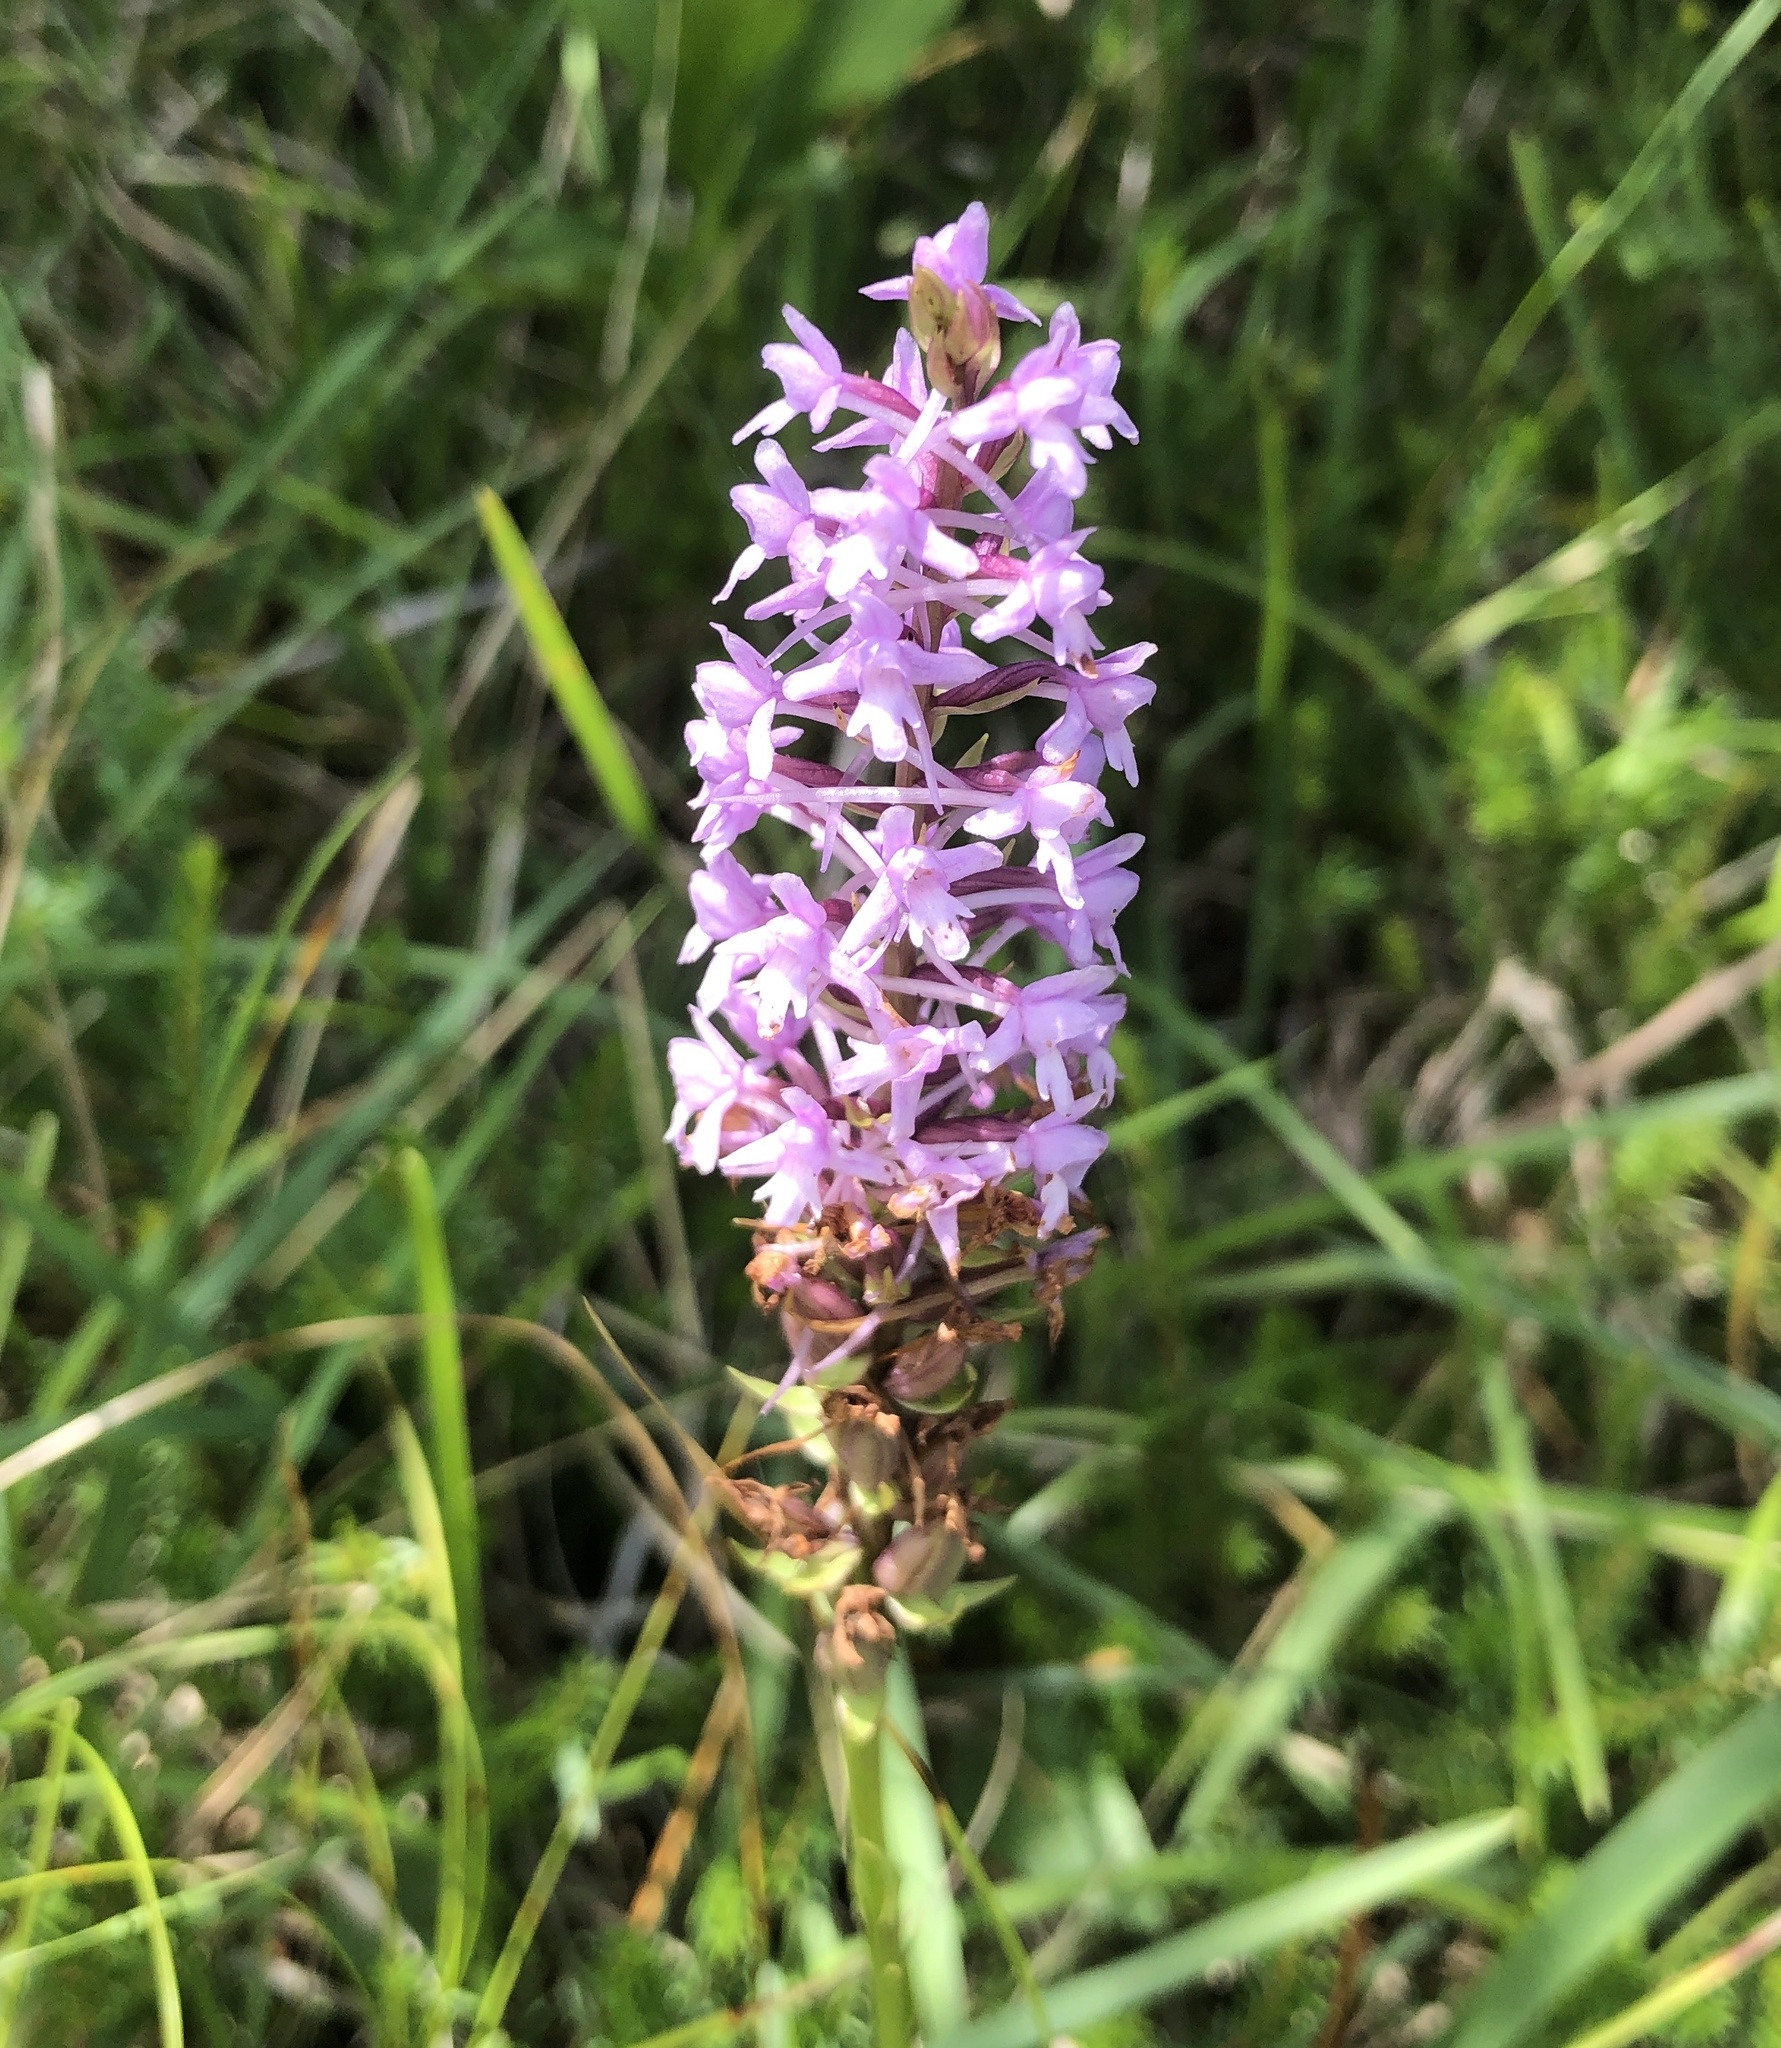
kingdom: Plantae
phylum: Tracheophyta
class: Liliopsida
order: Asparagales
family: Orchidaceae
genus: Gymnadenia
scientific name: Gymnadenia conopsea
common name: Fragrant orchid
